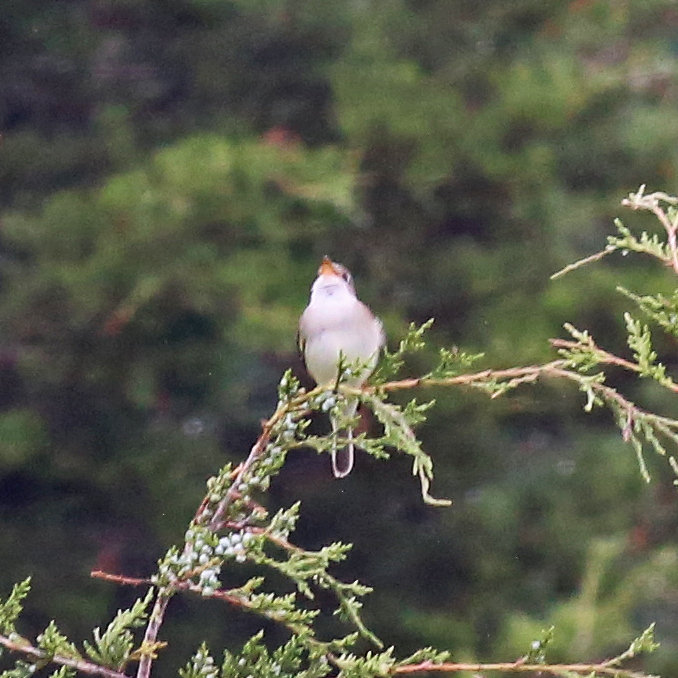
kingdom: Animalia
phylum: Chordata
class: Aves
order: Passeriformes
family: Tyrannidae
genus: Empidonax
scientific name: Empidonax traillii
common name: Willow flycatcher
